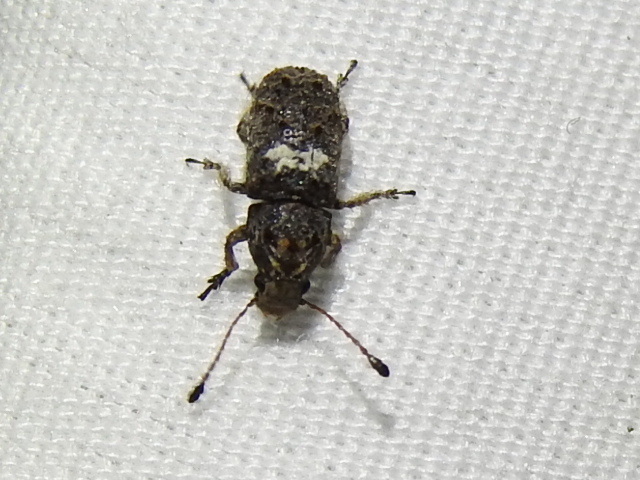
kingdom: Animalia
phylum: Arthropoda
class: Insecta
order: Coleoptera
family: Anthribidae
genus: Toxonotus
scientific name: Toxonotus cornutus
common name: Fungus weevil
